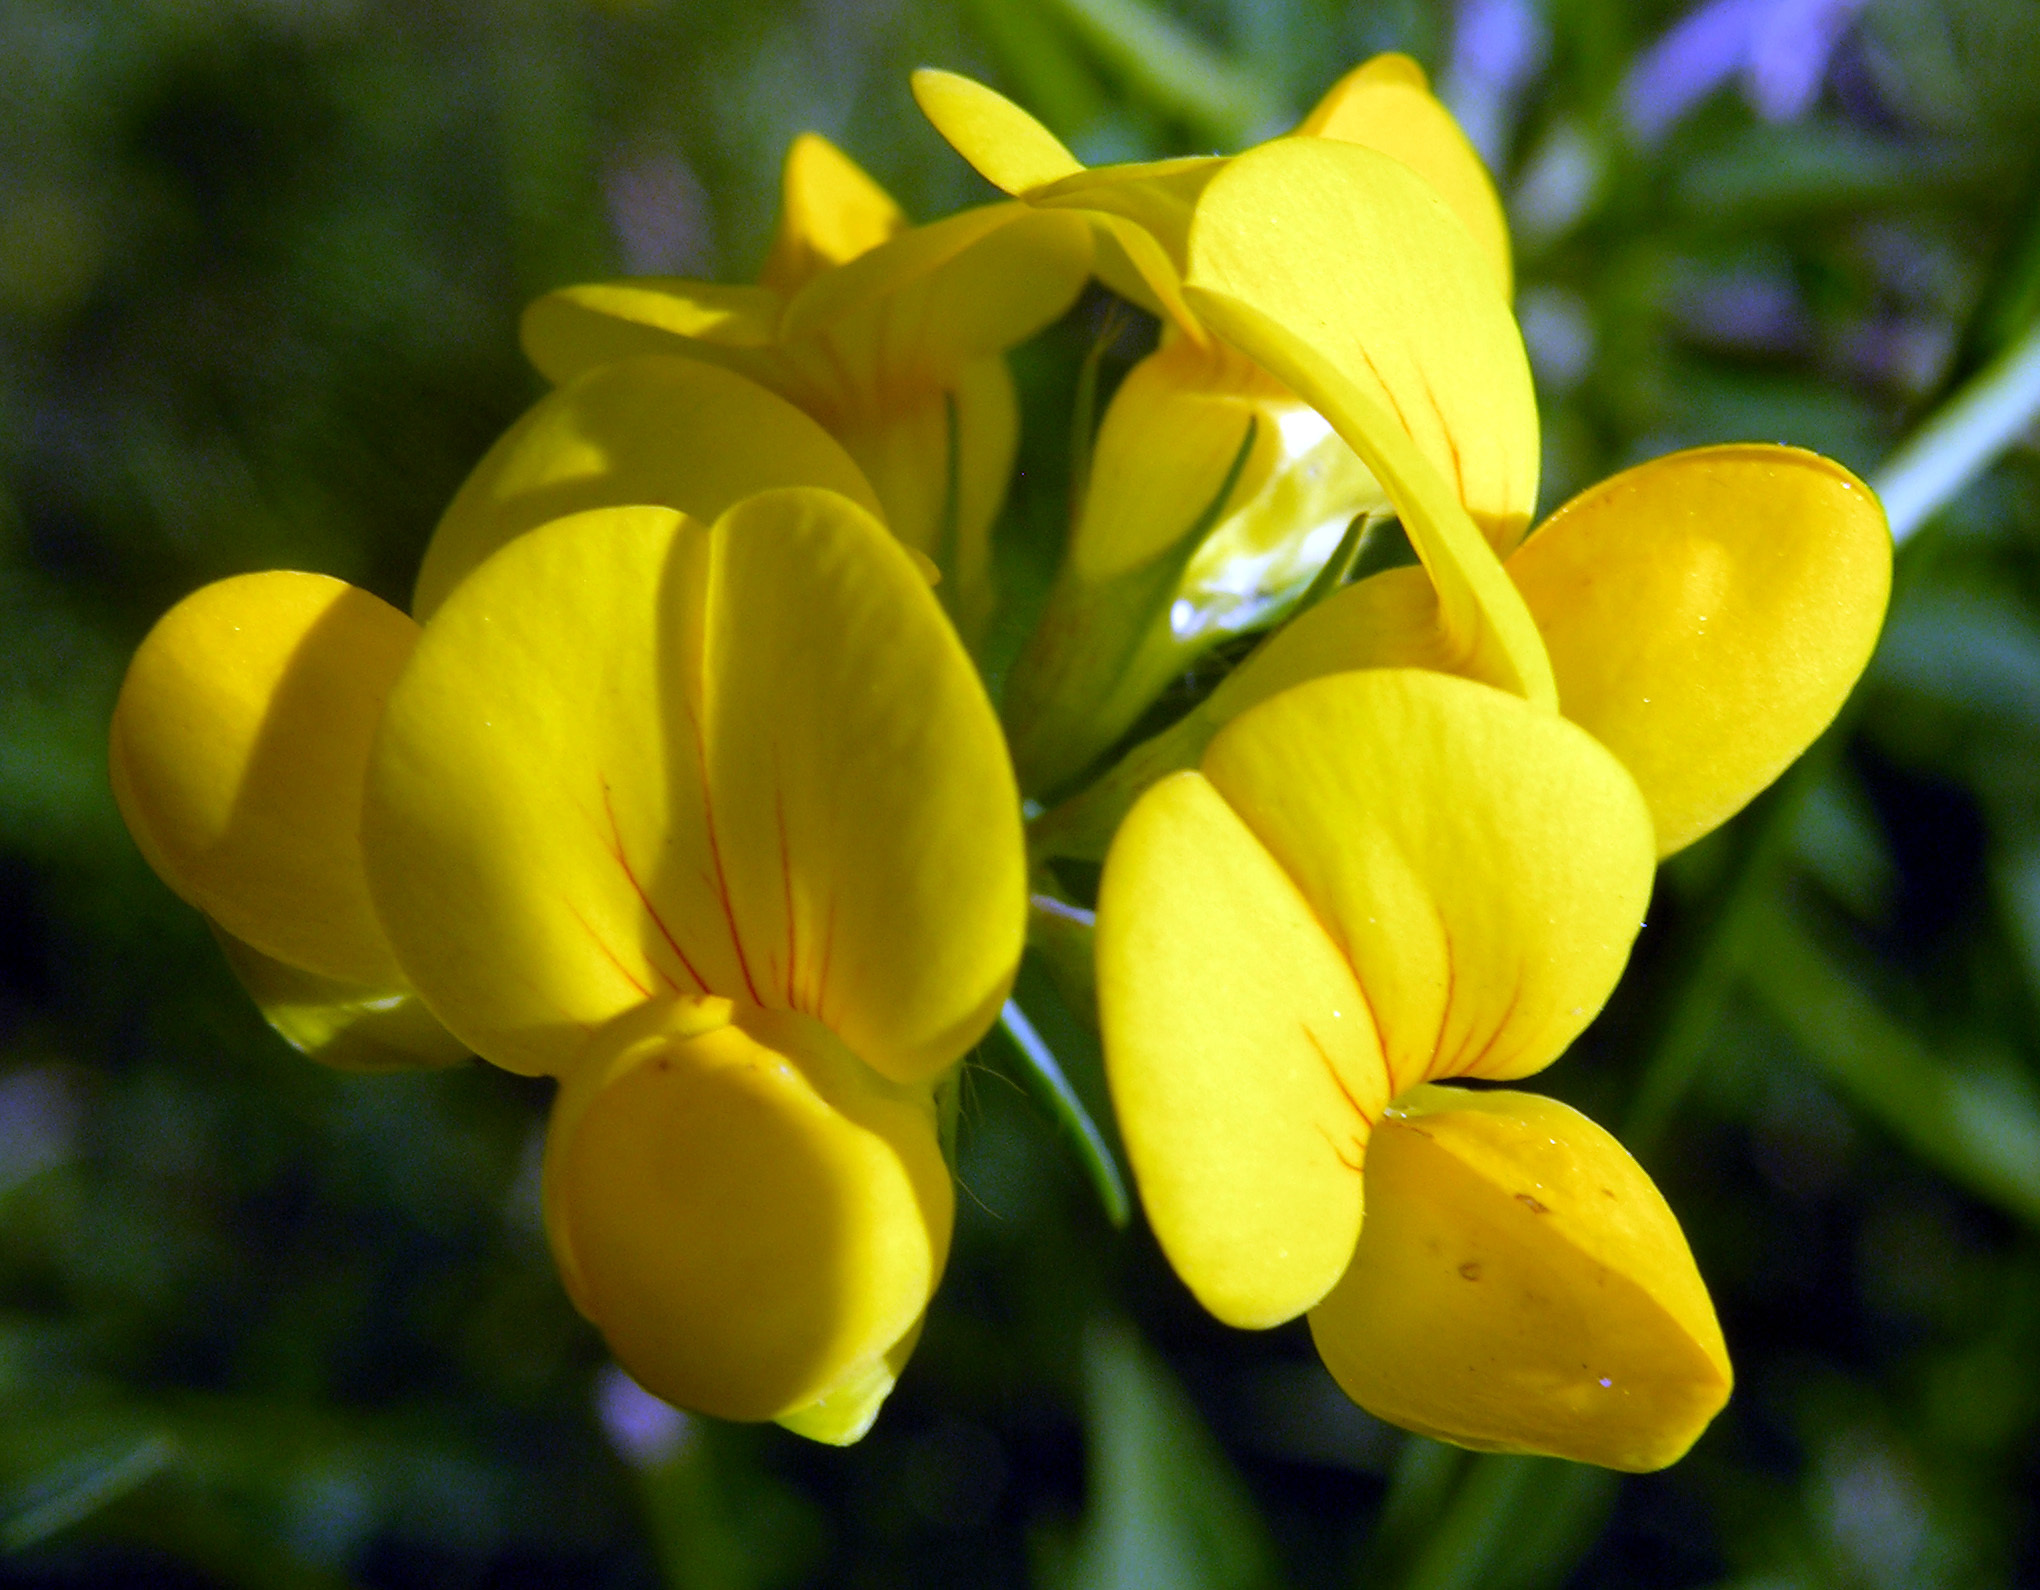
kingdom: Plantae
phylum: Tracheophyta
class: Magnoliopsida
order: Fabales
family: Fabaceae
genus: Lotus
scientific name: Lotus tenuis
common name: Narrow-leaved bird's-foot-trefoil
